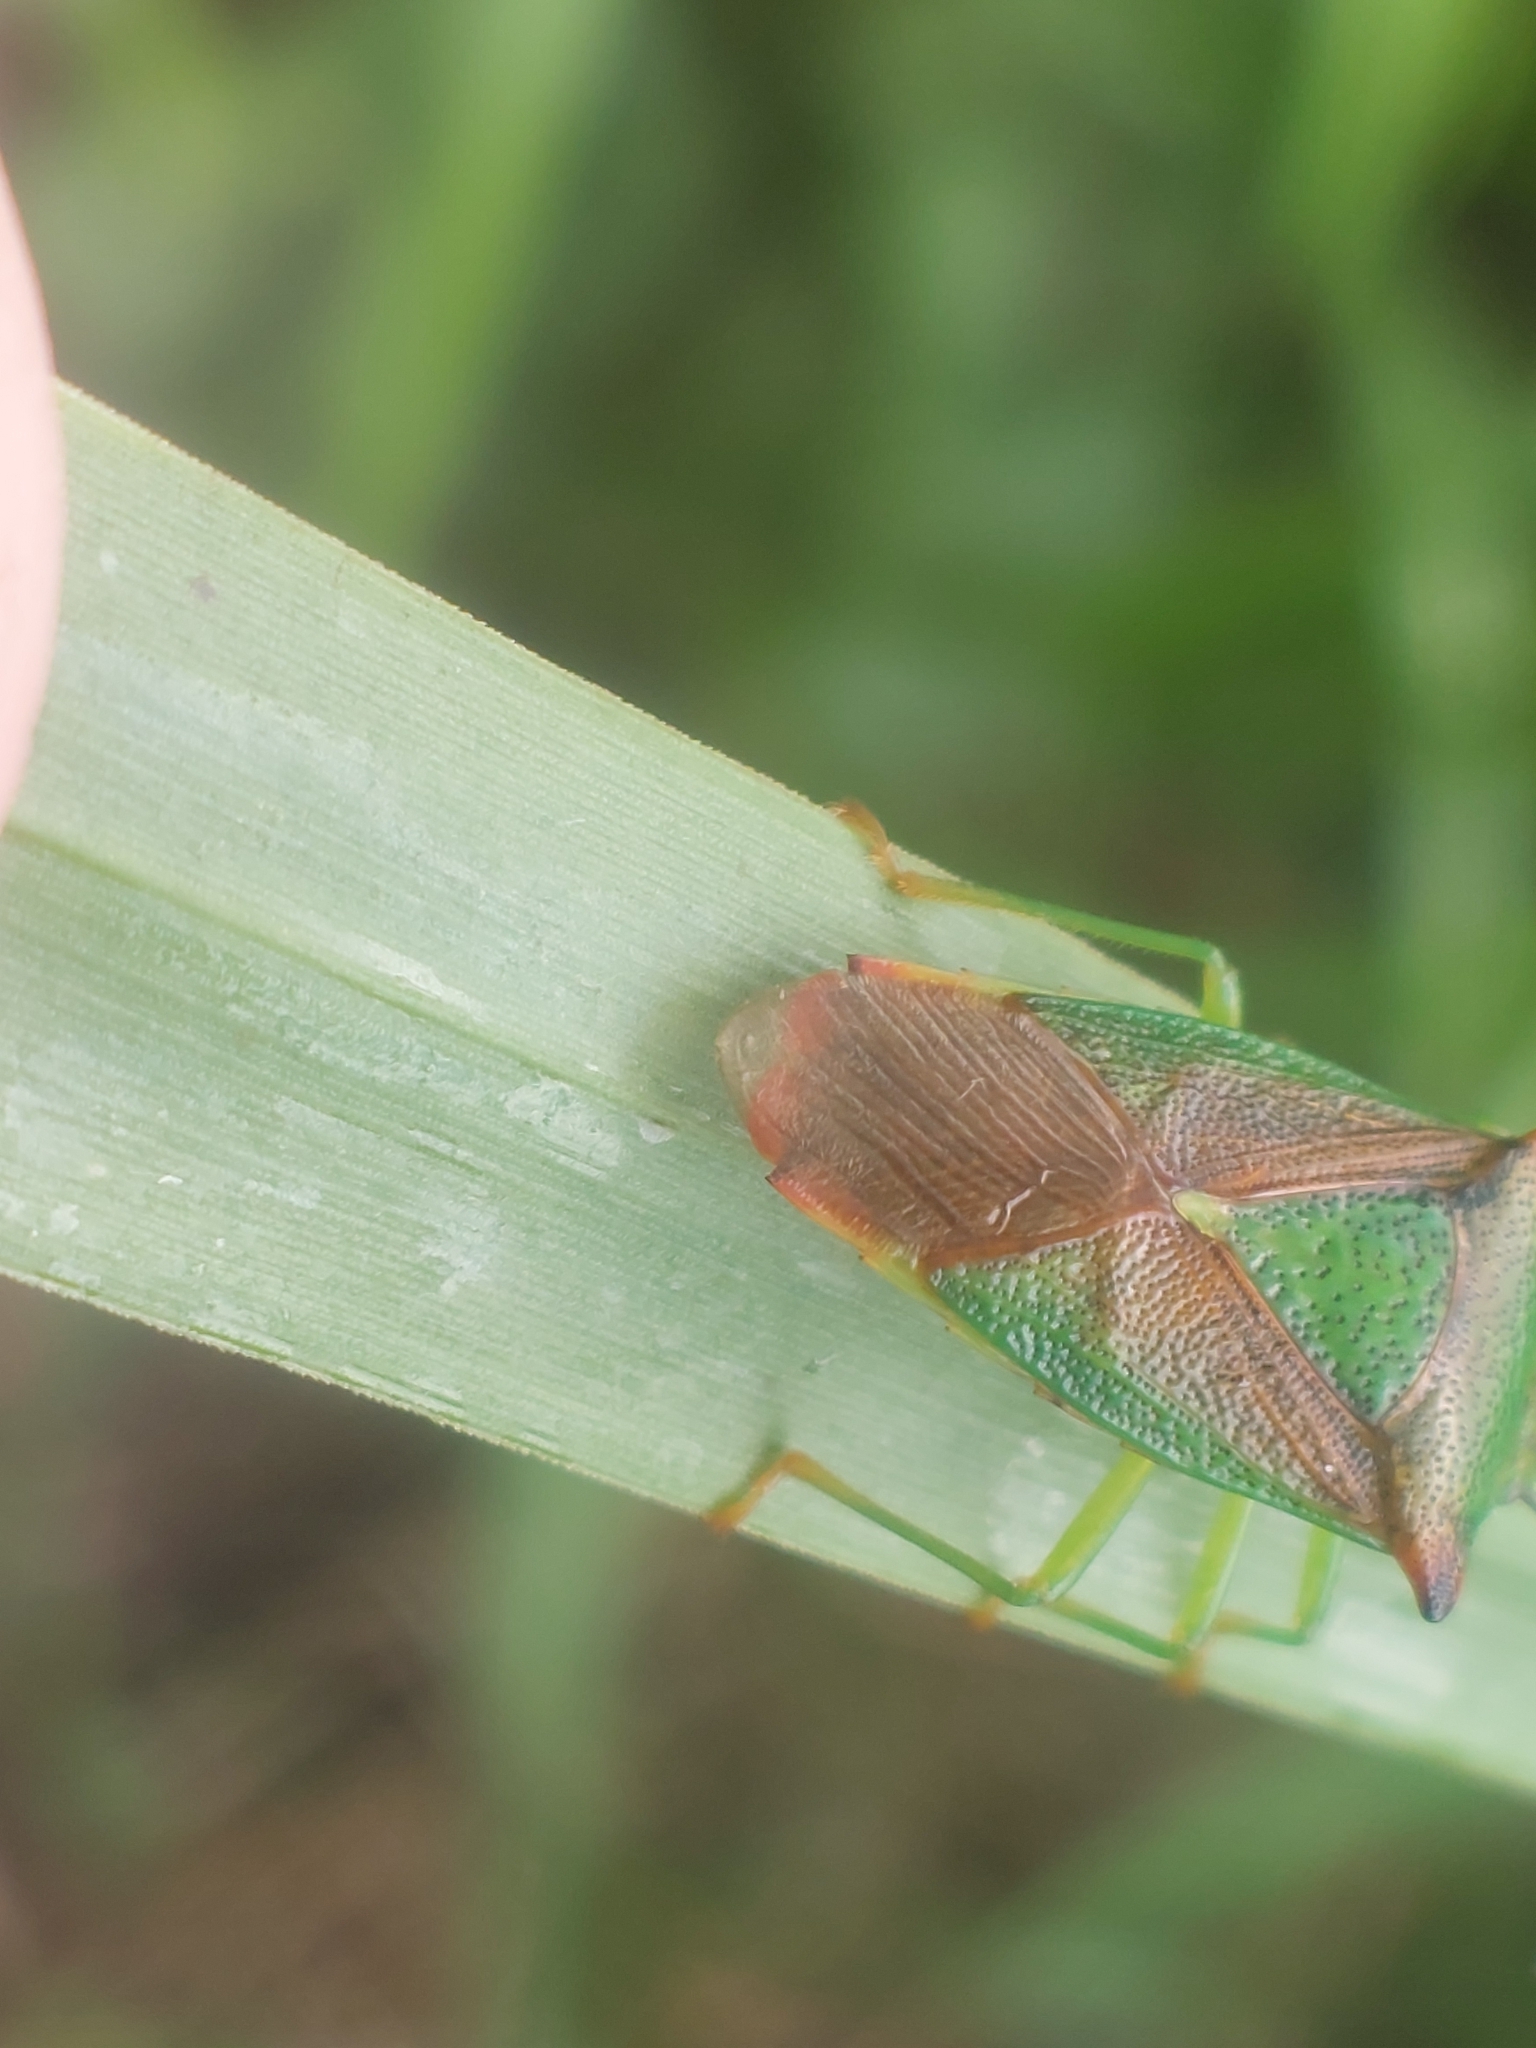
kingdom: Animalia
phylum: Arthropoda
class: Insecta
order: Hemiptera
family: Acanthosomatidae
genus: Acanthosoma
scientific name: Acanthosoma haemorrhoidale
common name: Hawthorn shieldbug
